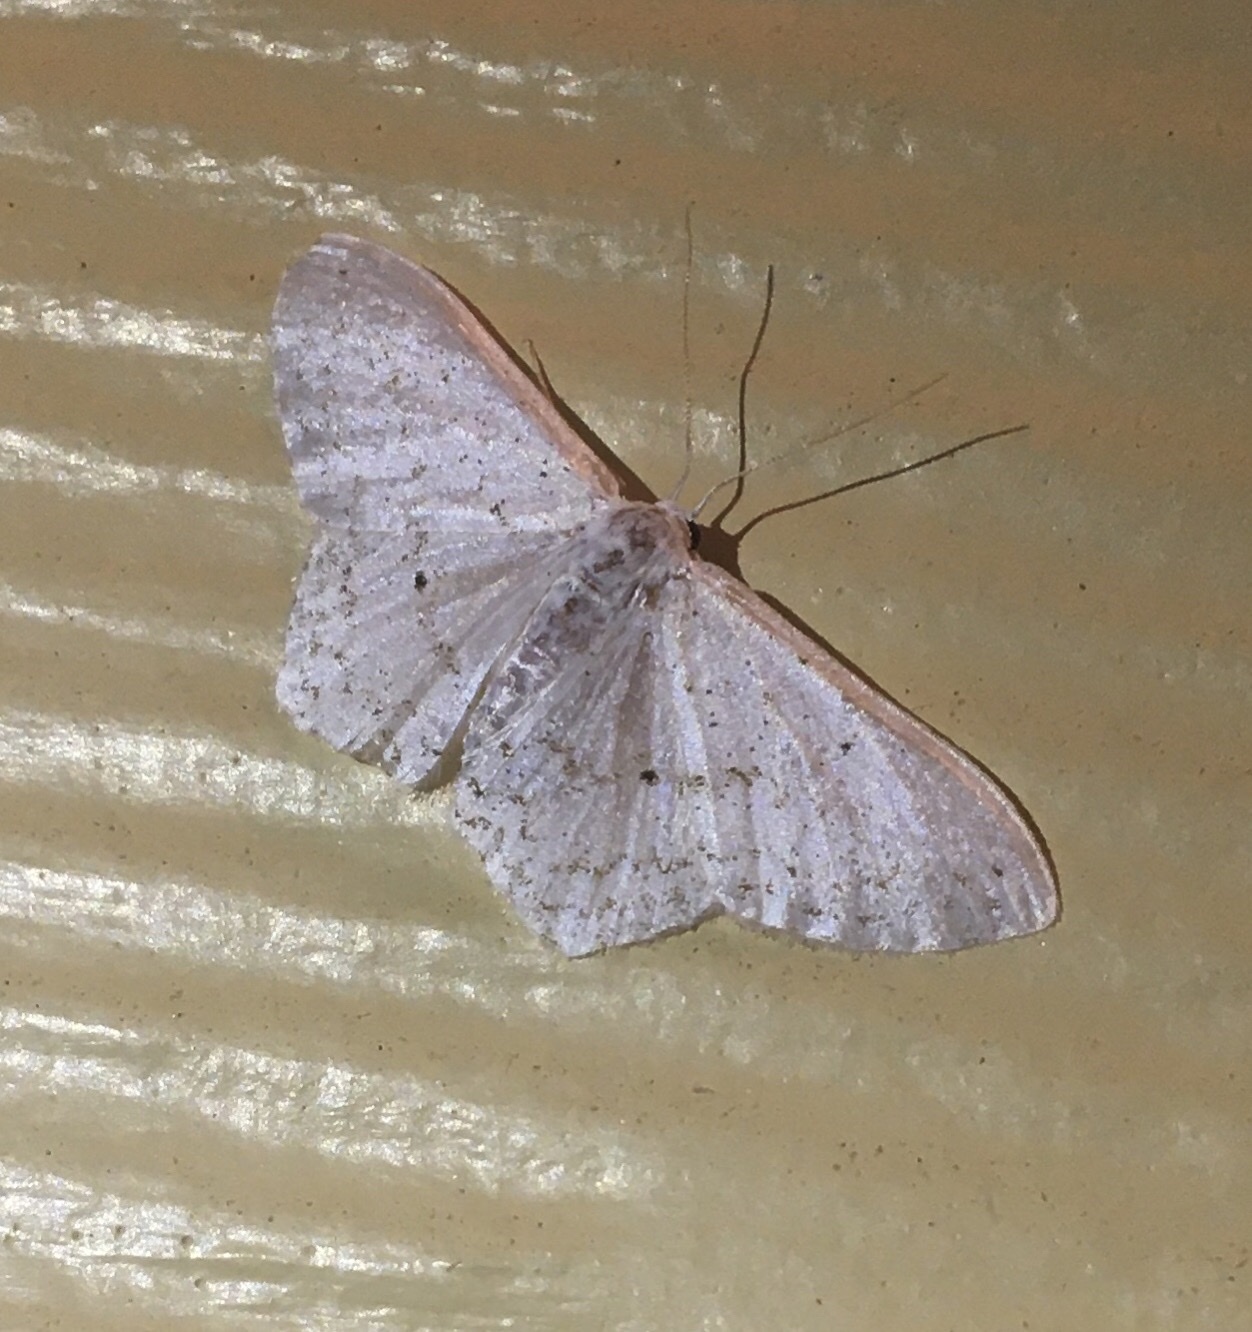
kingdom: Animalia
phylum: Arthropoda
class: Insecta
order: Lepidoptera
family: Geometridae
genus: Idaea
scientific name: Idaea tacturata
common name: Dot-lined wave
